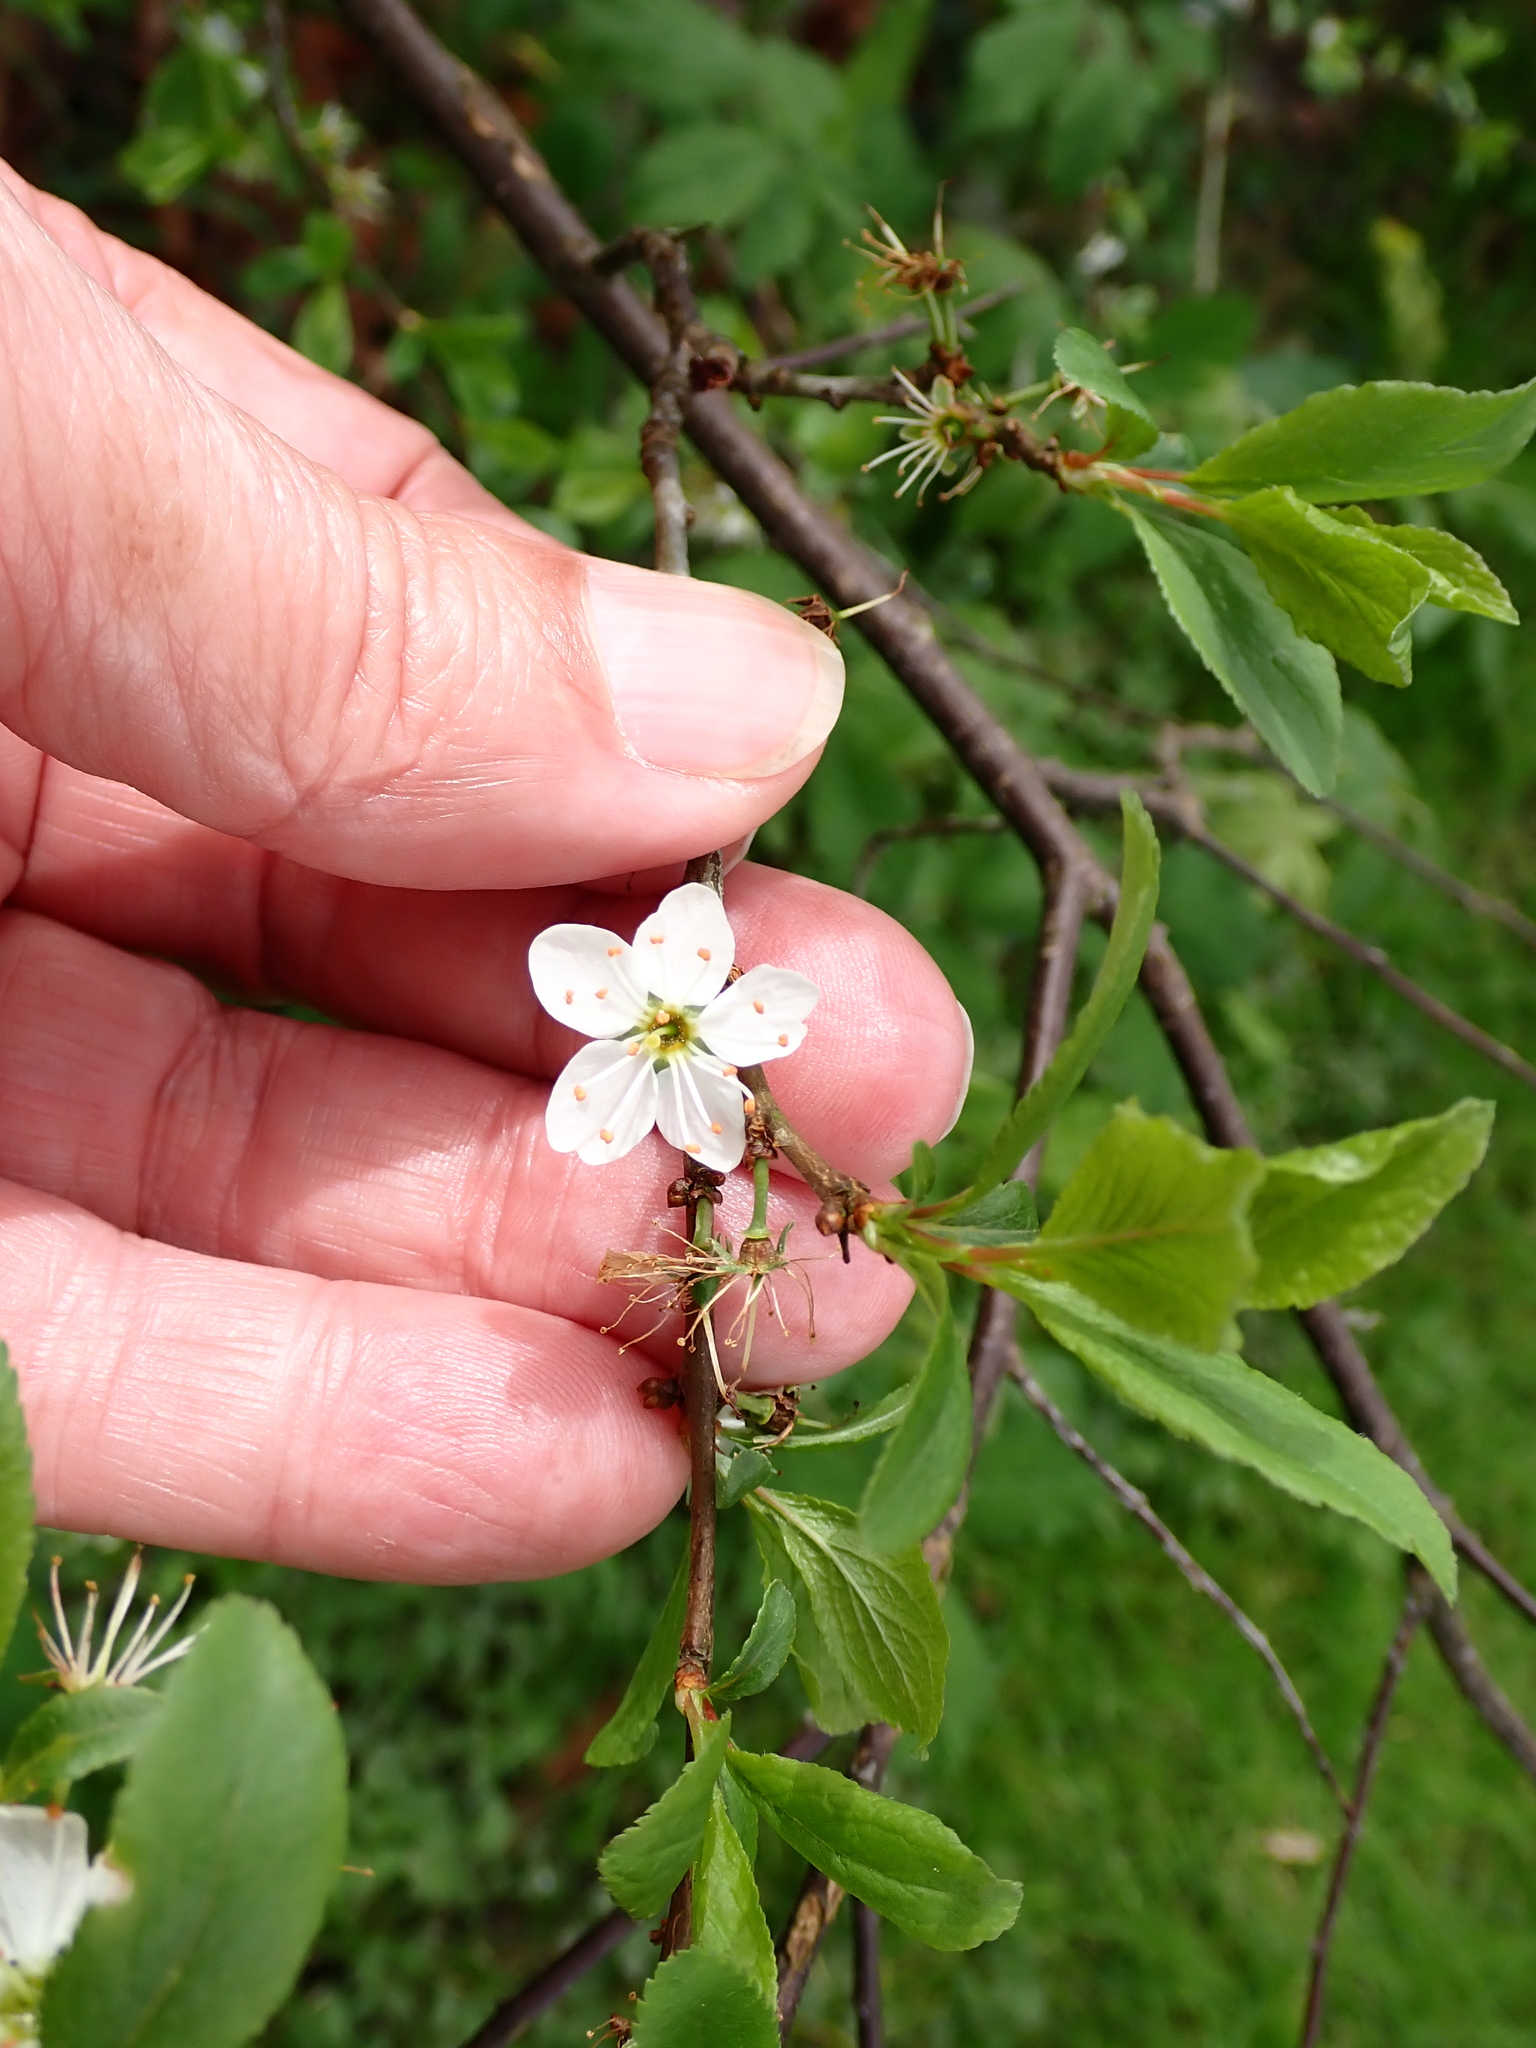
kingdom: Plantae
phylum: Tracheophyta
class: Magnoliopsida
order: Rosales
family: Rosaceae
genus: Prunus
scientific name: Prunus spinosa
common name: Blackthorn
